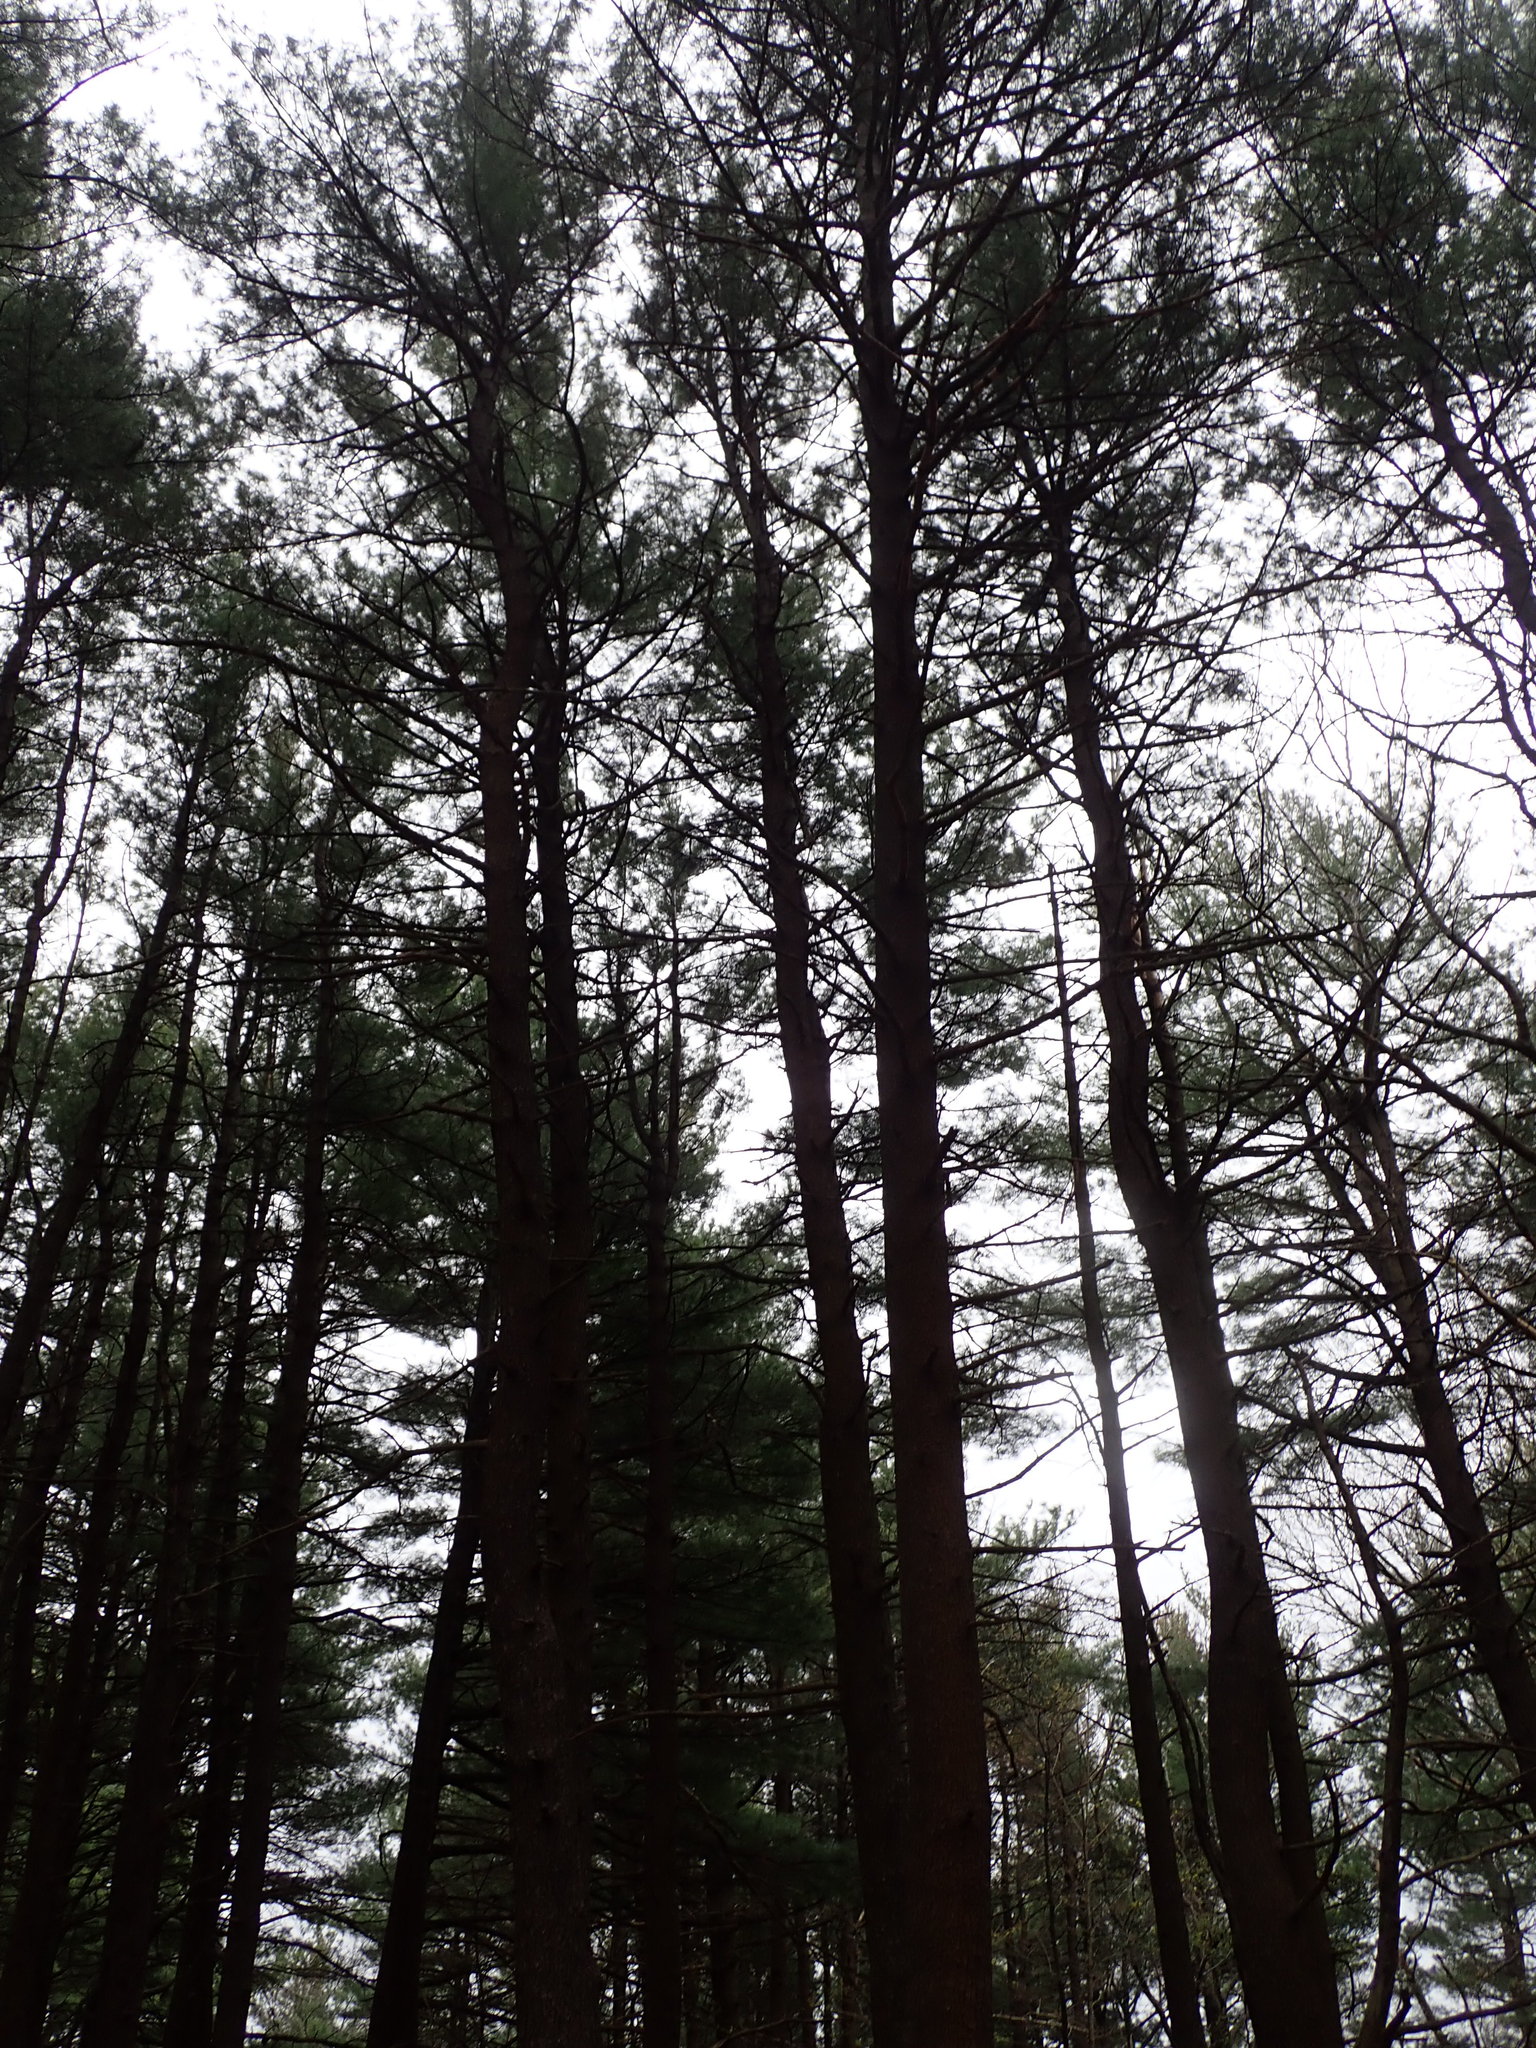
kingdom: Plantae
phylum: Tracheophyta
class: Pinopsida
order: Pinales
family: Pinaceae
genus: Pinus
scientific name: Pinus strobus
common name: Weymouth pine
